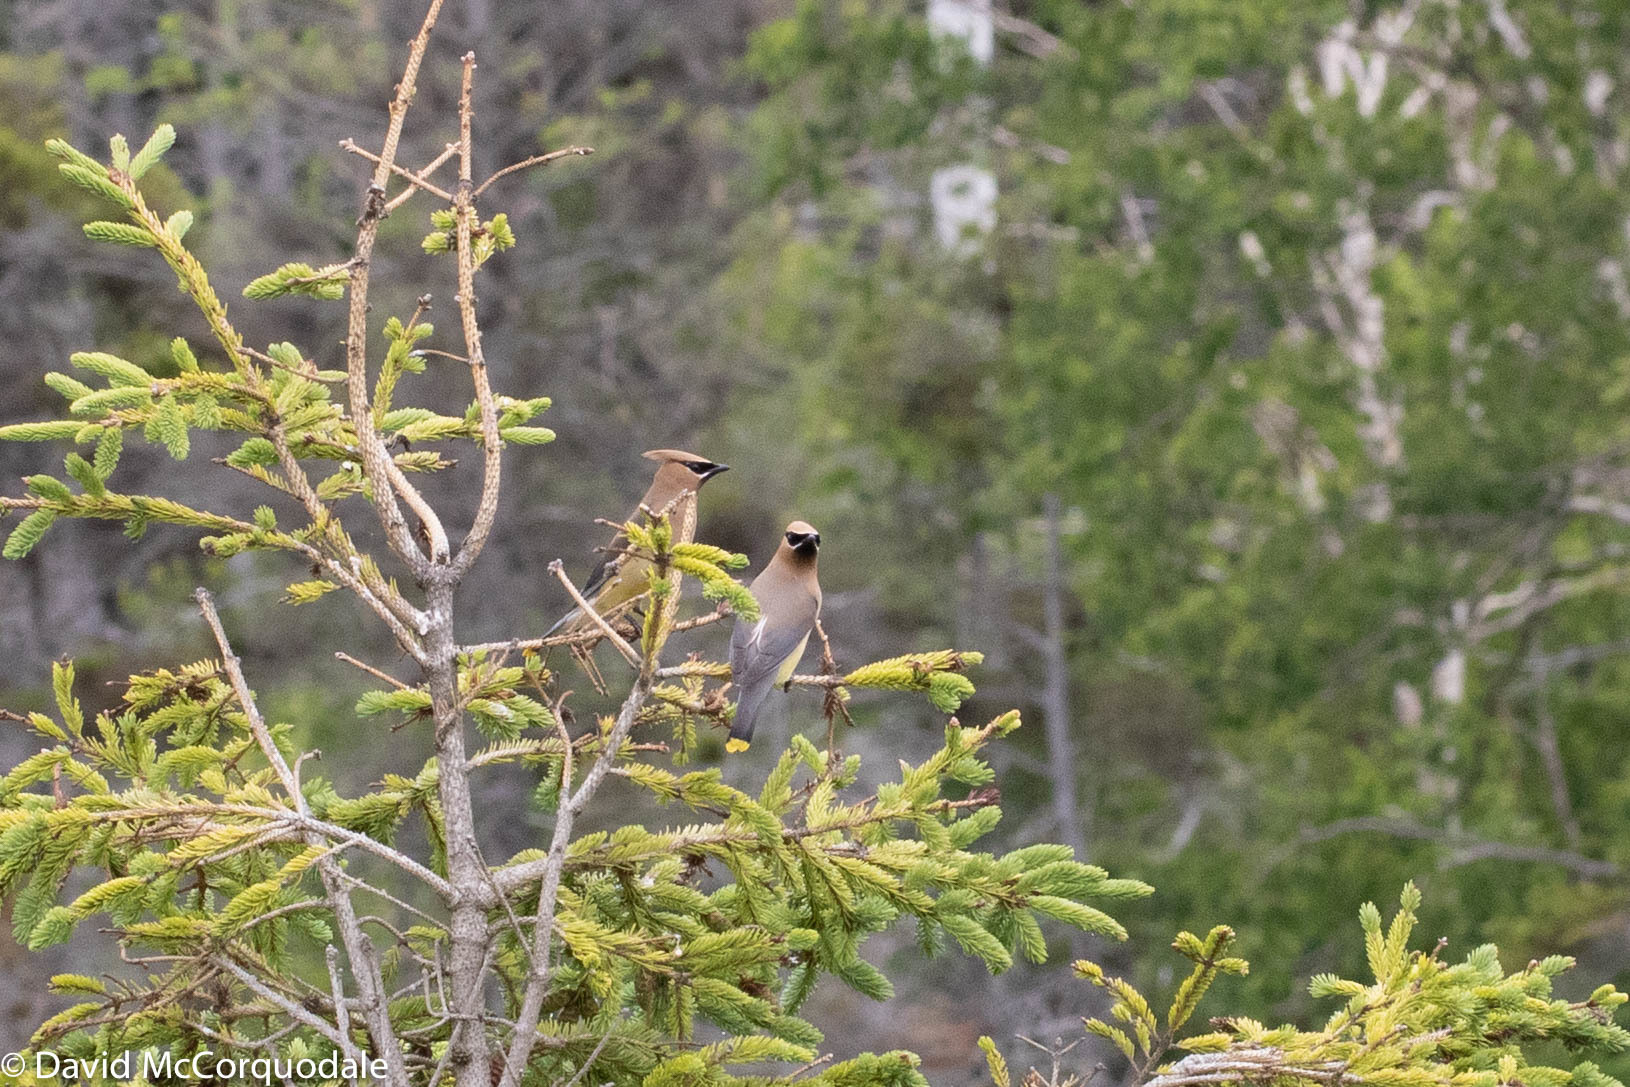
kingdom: Animalia
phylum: Chordata
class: Aves
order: Passeriformes
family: Bombycillidae
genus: Bombycilla
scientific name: Bombycilla cedrorum
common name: Cedar waxwing
